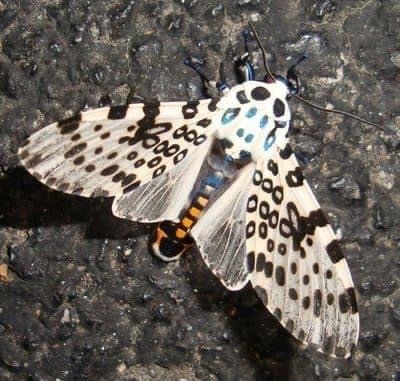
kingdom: Animalia
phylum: Arthropoda
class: Insecta
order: Lepidoptera
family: Erebidae
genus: Hypercompe
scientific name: Hypercompe scribonia
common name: Giant leopard moth
